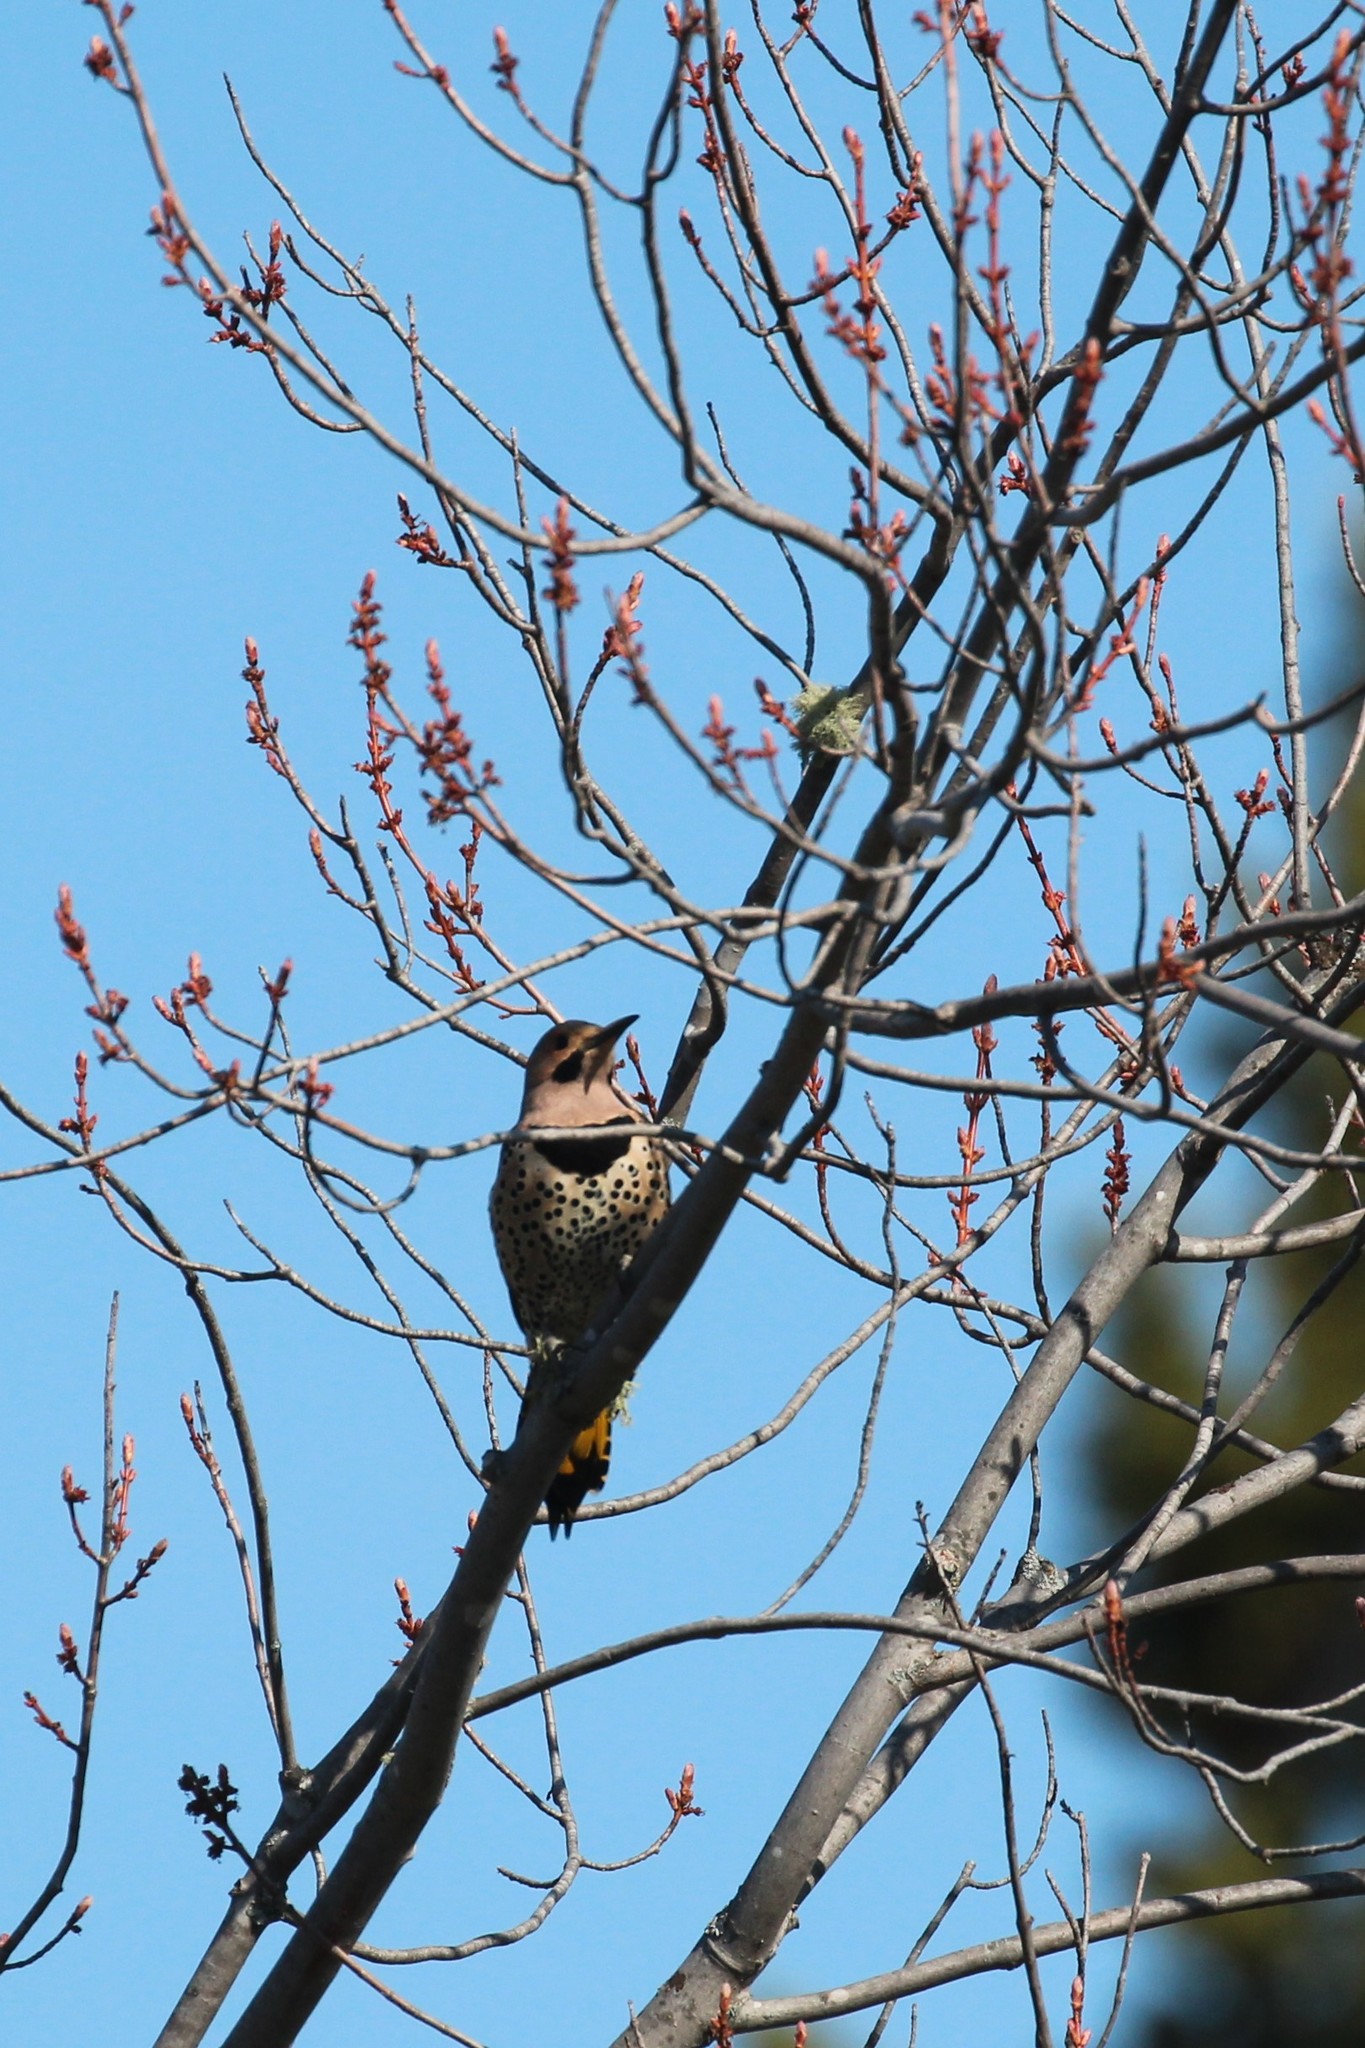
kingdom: Animalia
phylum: Chordata
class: Aves
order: Piciformes
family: Picidae
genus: Colaptes
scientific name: Colaptes auratus
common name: Northern flicker
